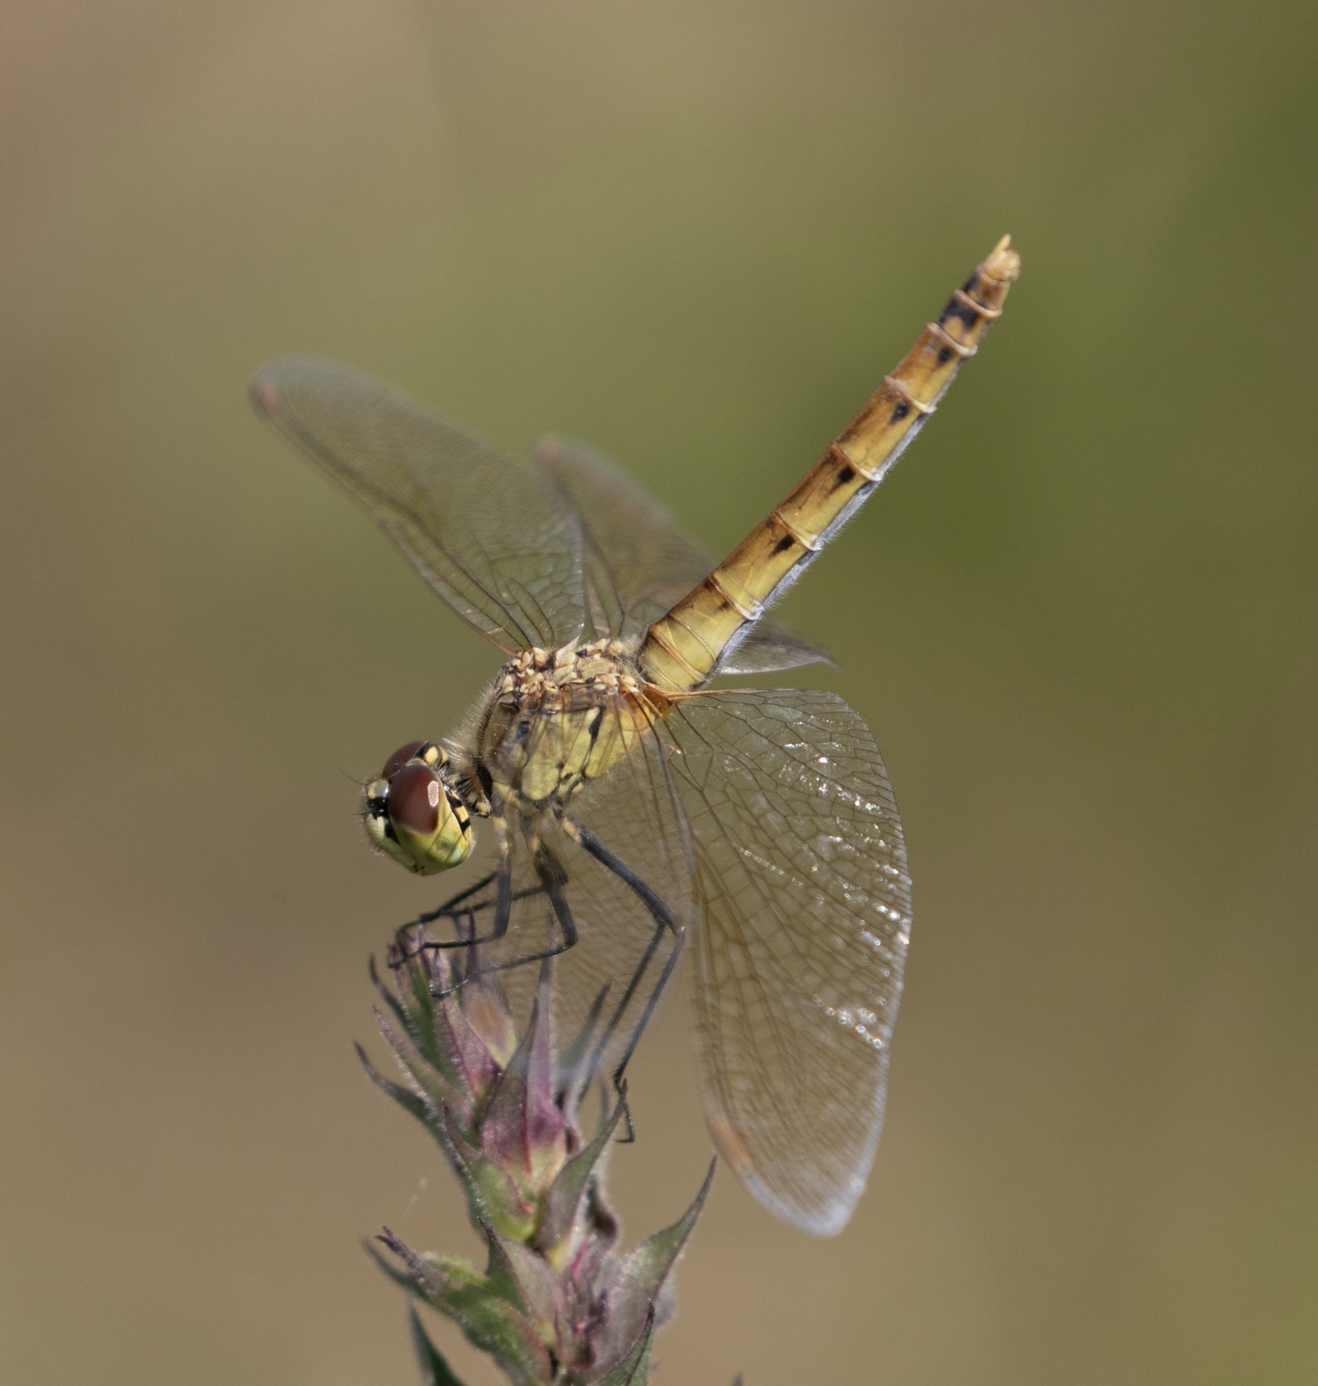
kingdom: Animalia
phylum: Arthropoda
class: Insecta
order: Odonata
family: Libellulidae
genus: Sympetrum
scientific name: Sympetrum depressiusculum
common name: Spotted darter
